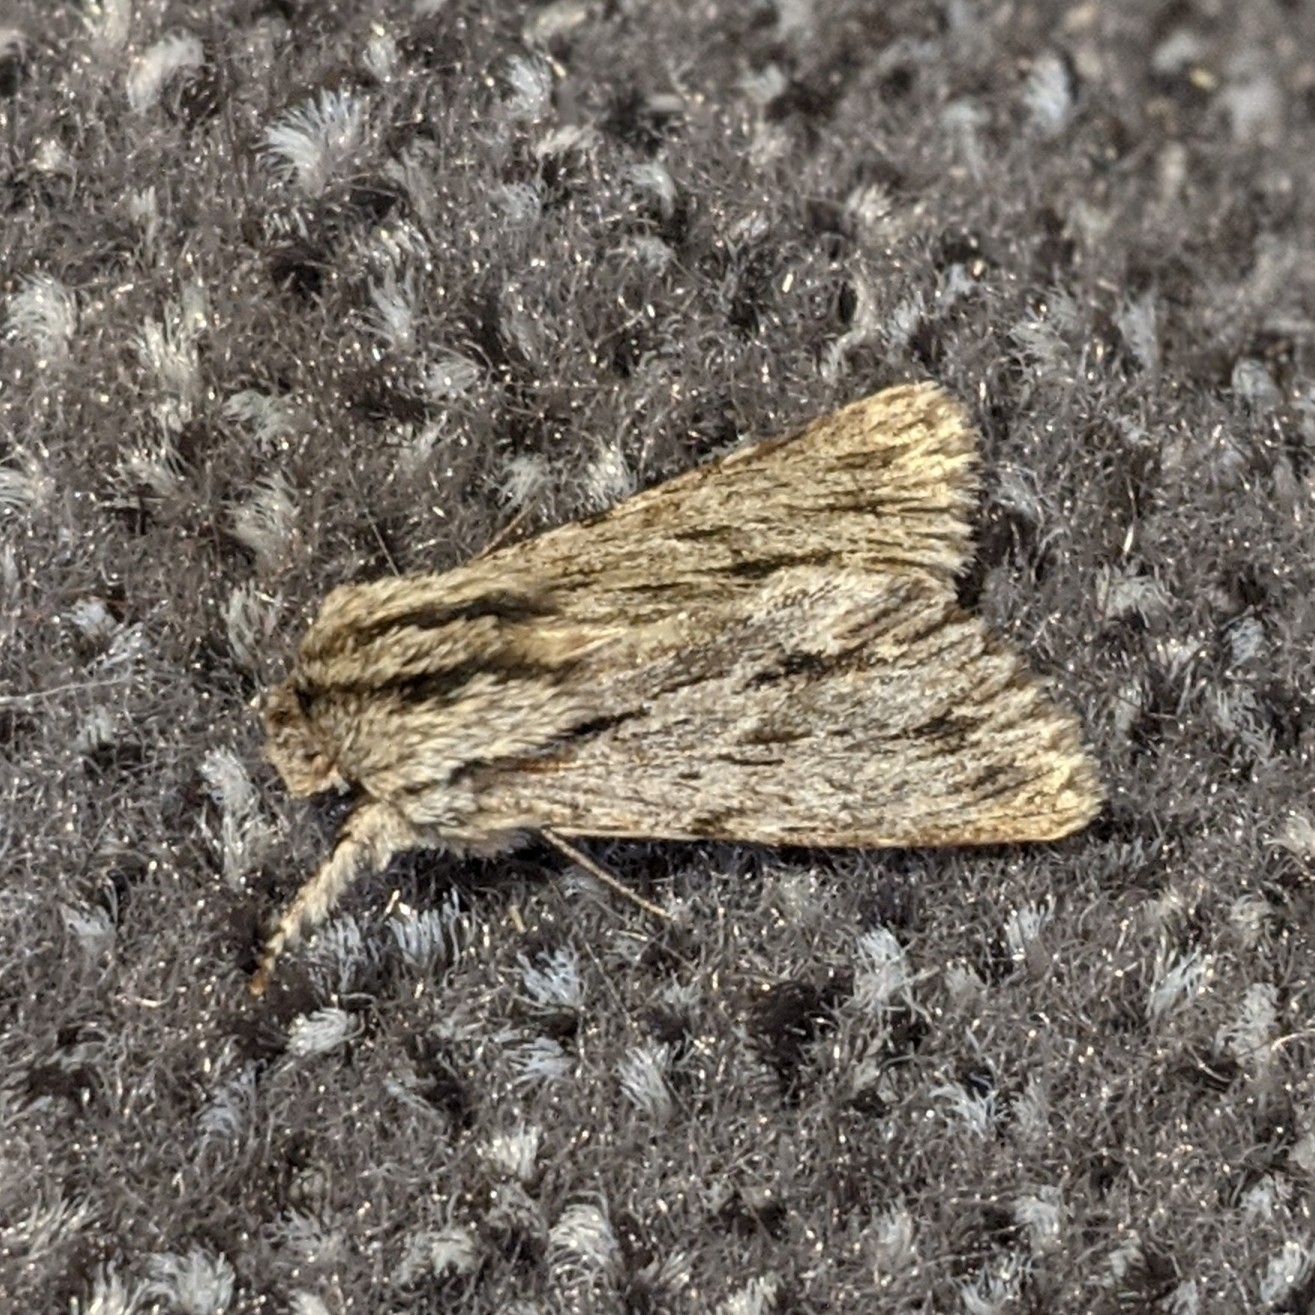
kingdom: Animalia
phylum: Arthropoda
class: Insecta
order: Lepidoptera
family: Noctuidae
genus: Asteroscopus
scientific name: Asteroscopus sphinx
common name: The sprawler
